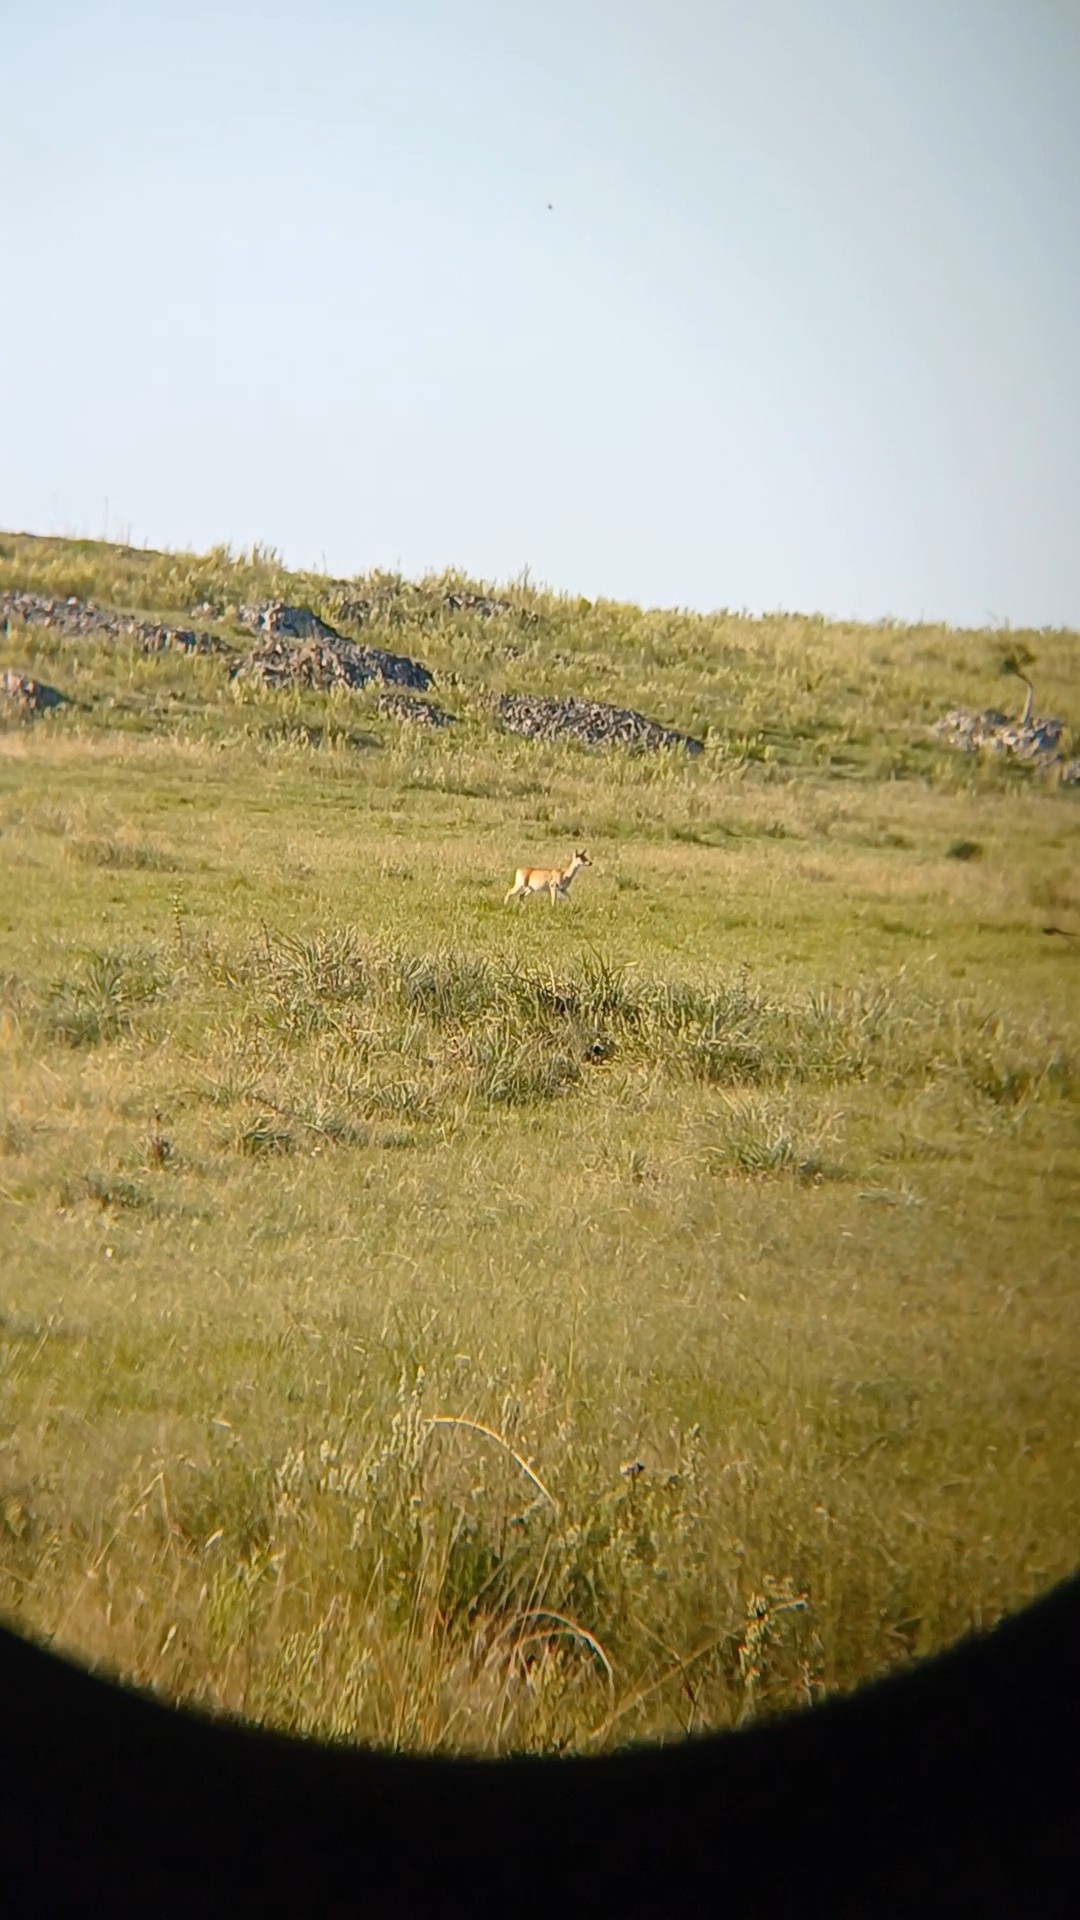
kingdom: Animalia
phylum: Chordata
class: Mammalia
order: Artiodactyla
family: Cervidae
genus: Ozotoceros
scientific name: Ozotoceros bezoarticus
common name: Pampas deer
